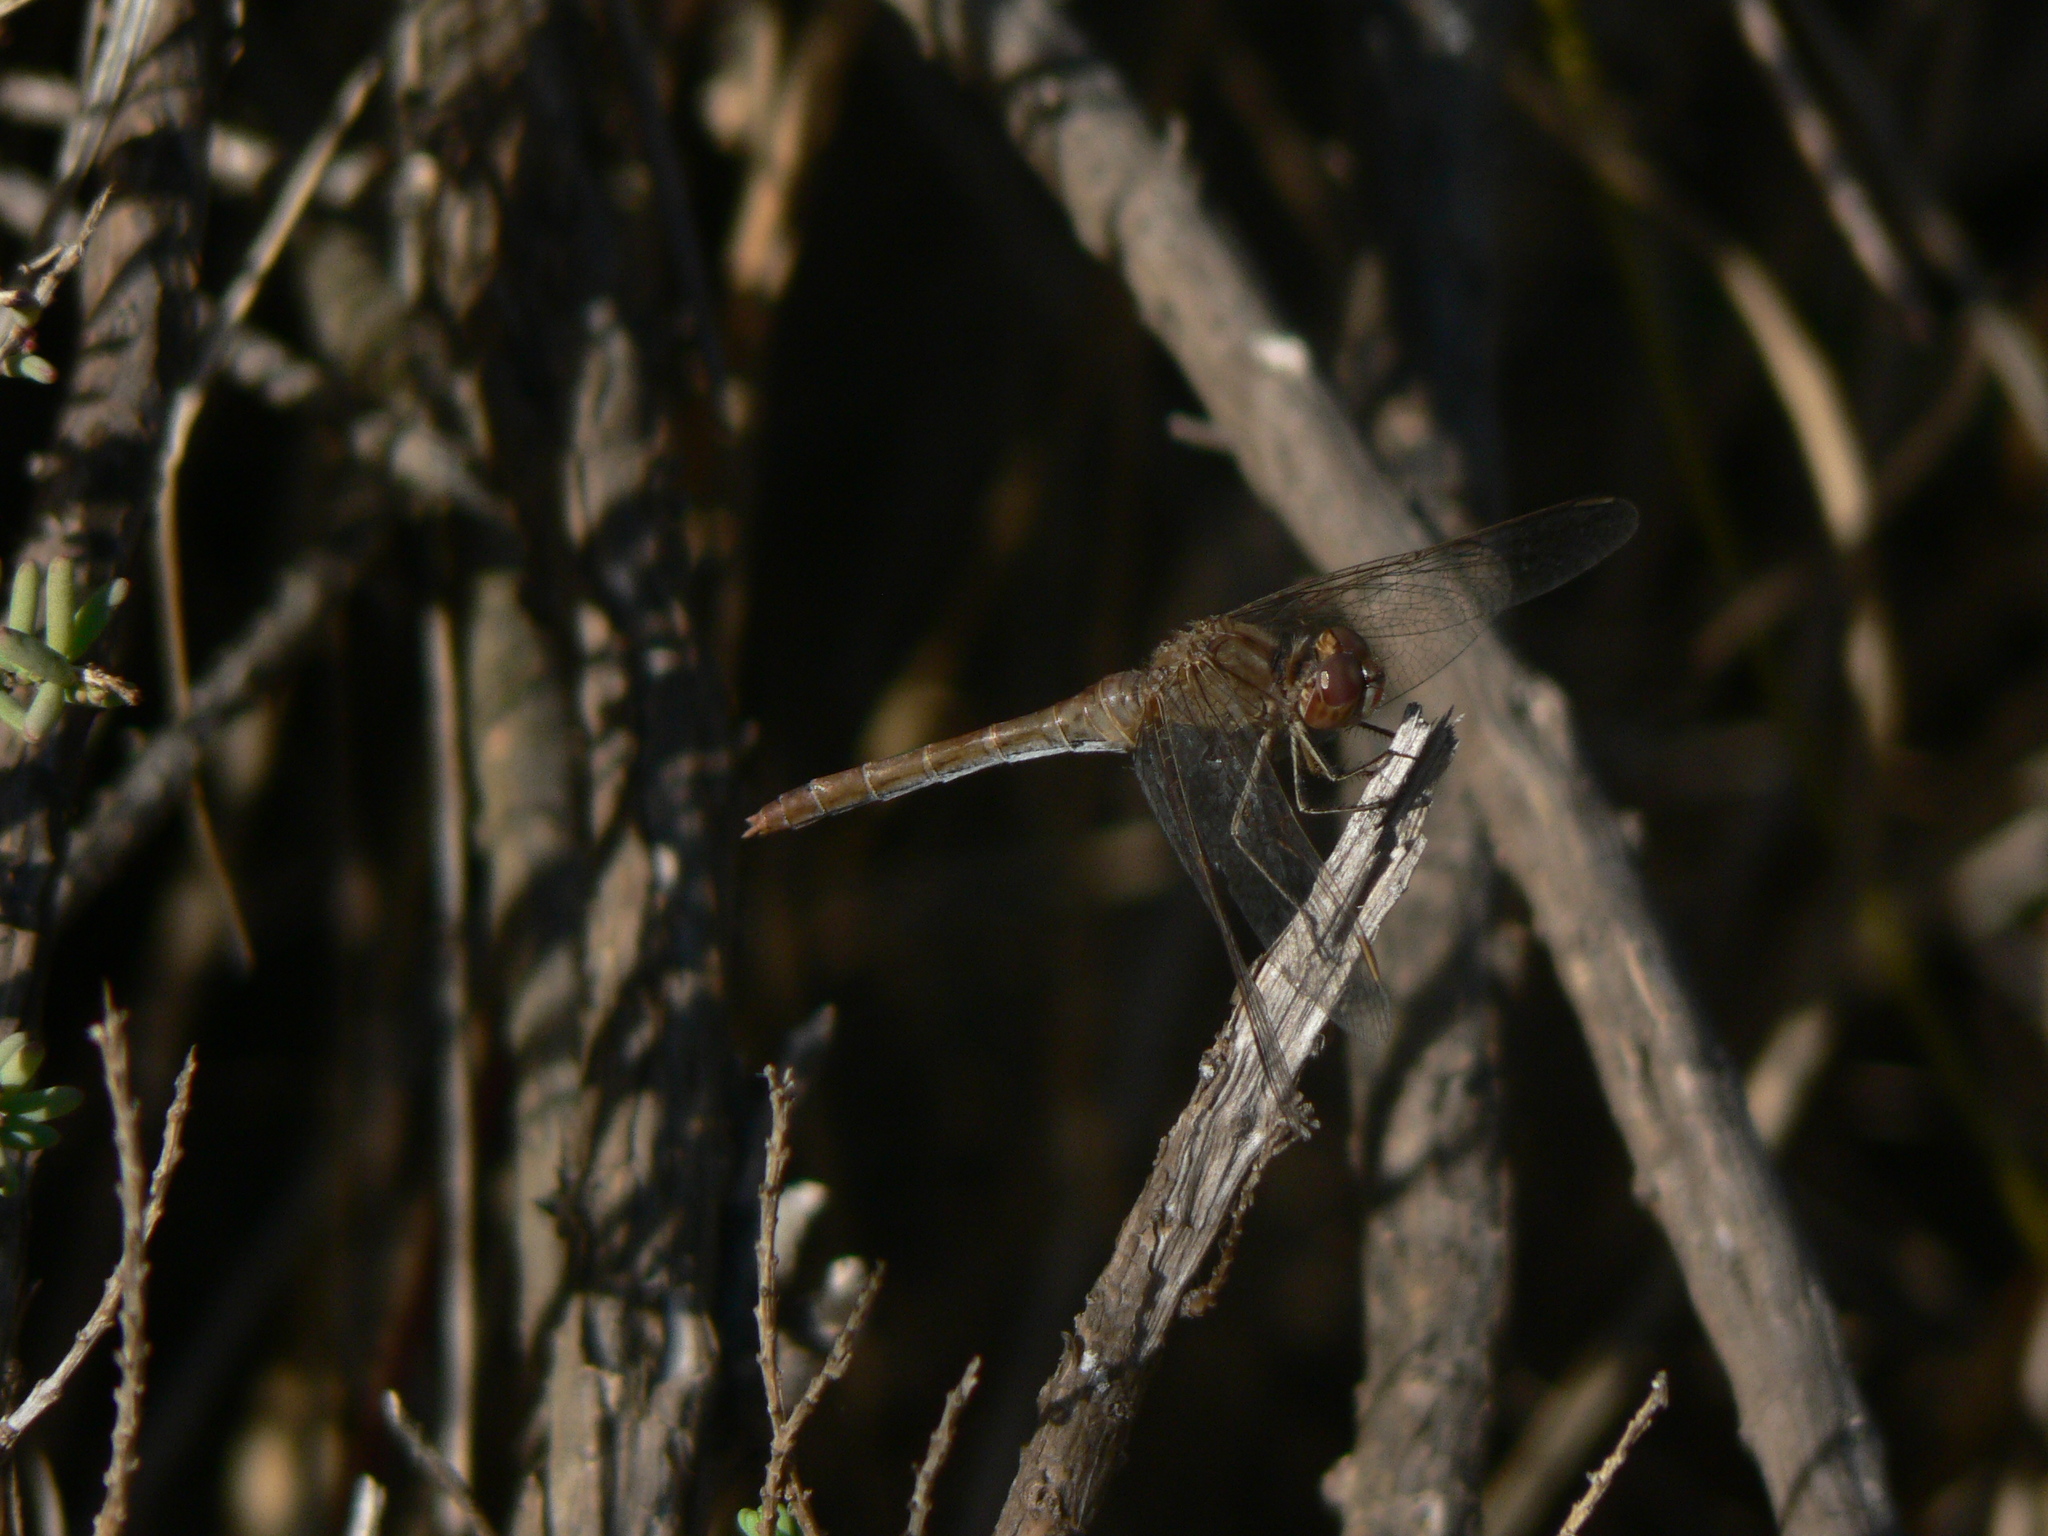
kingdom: Animalia
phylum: Arthropoda
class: Insecta
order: Odonata
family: Libellulidae
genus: Sympetrum
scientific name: Sympetrum fonscolombii
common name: Red-veined darter
